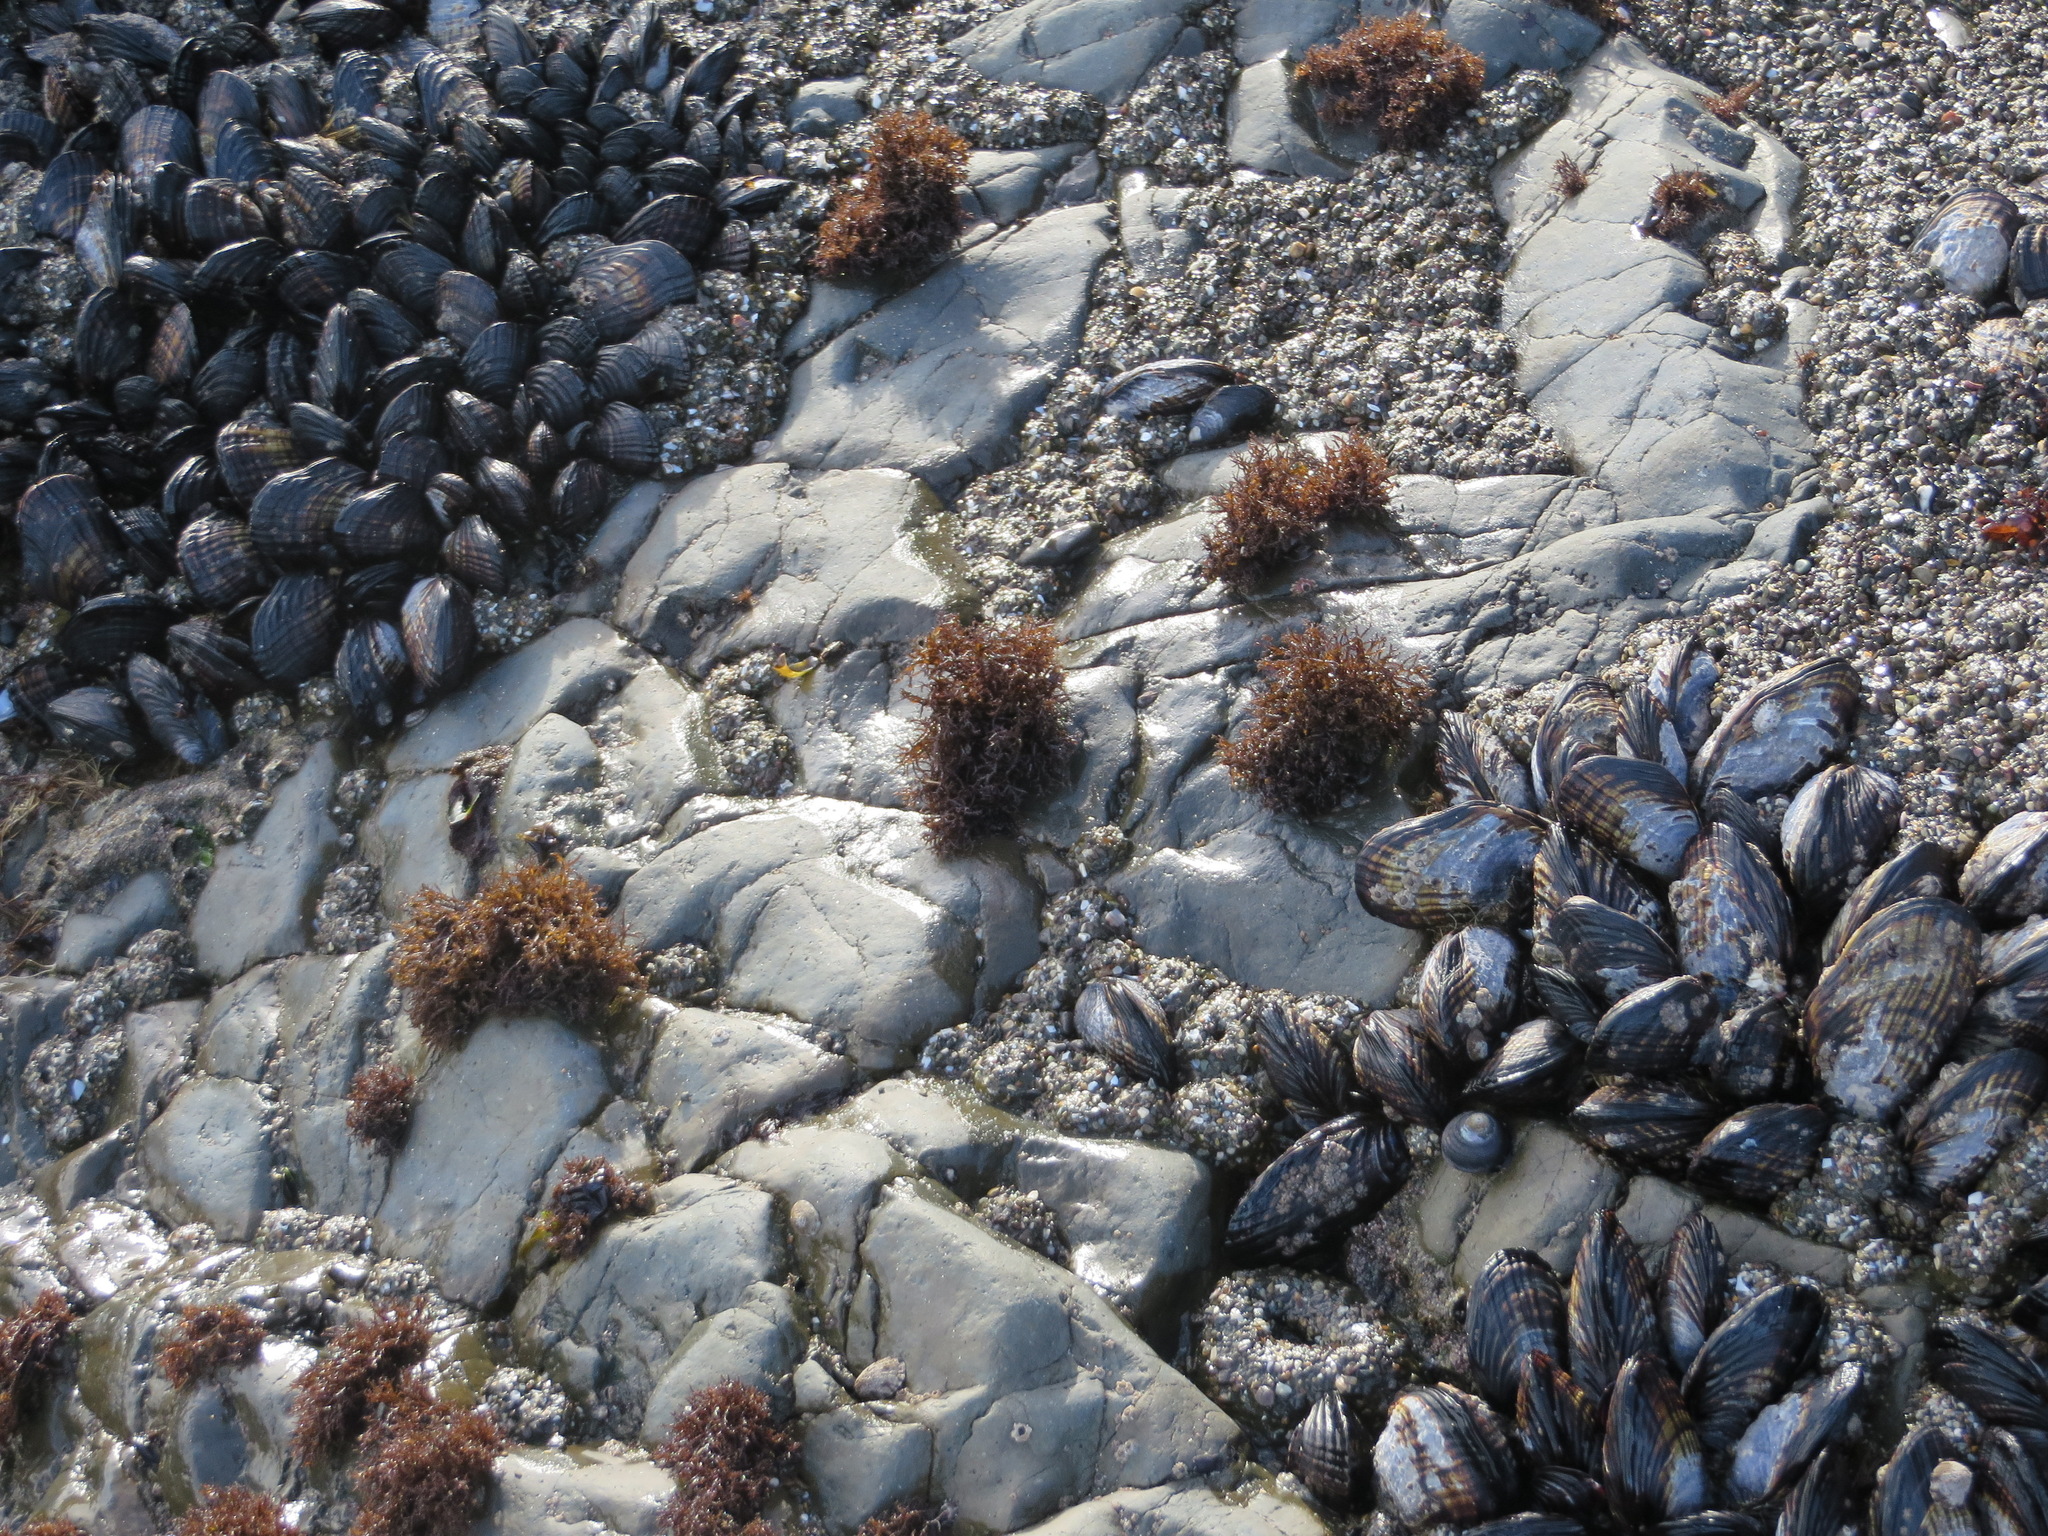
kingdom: Plantae
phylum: Rhodophyta
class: Florideophyceae
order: Gigartinales
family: Endocladiaceae
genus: Endocladia
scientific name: Endocladia muricata
